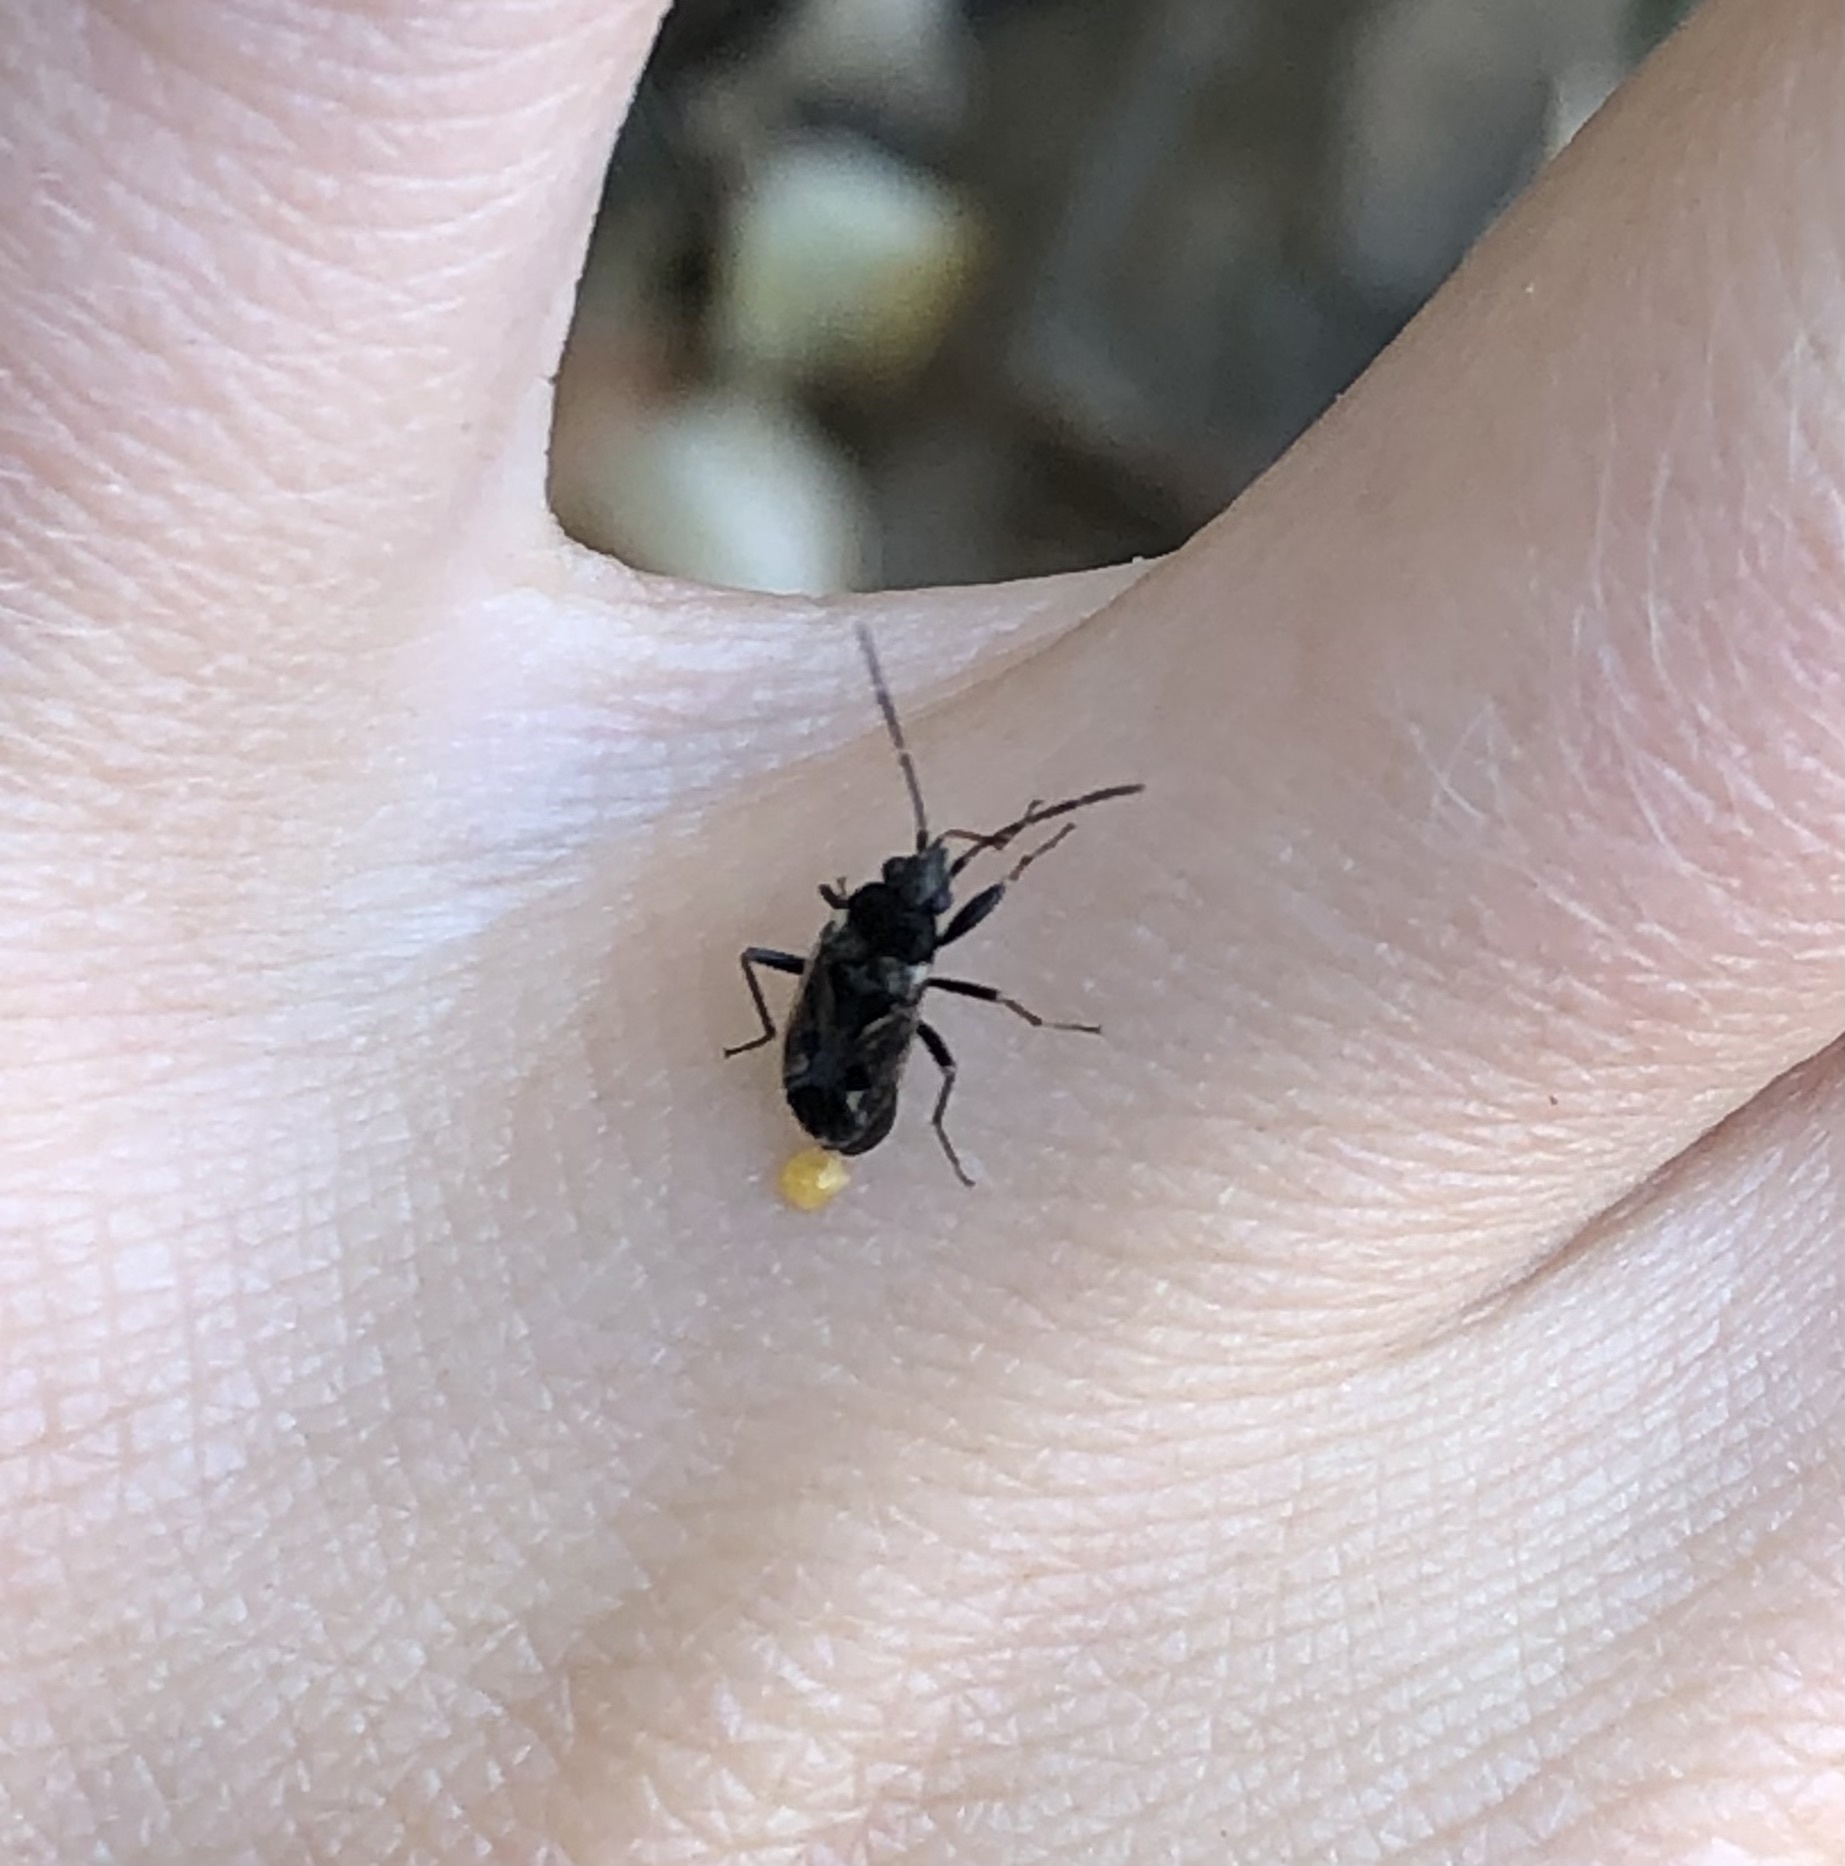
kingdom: Animalia
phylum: Arthropoda
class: Insecta
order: Hemiptera
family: Rhyparochromidae
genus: Rhyparochromus
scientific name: Rhyparochromus vulgaris
